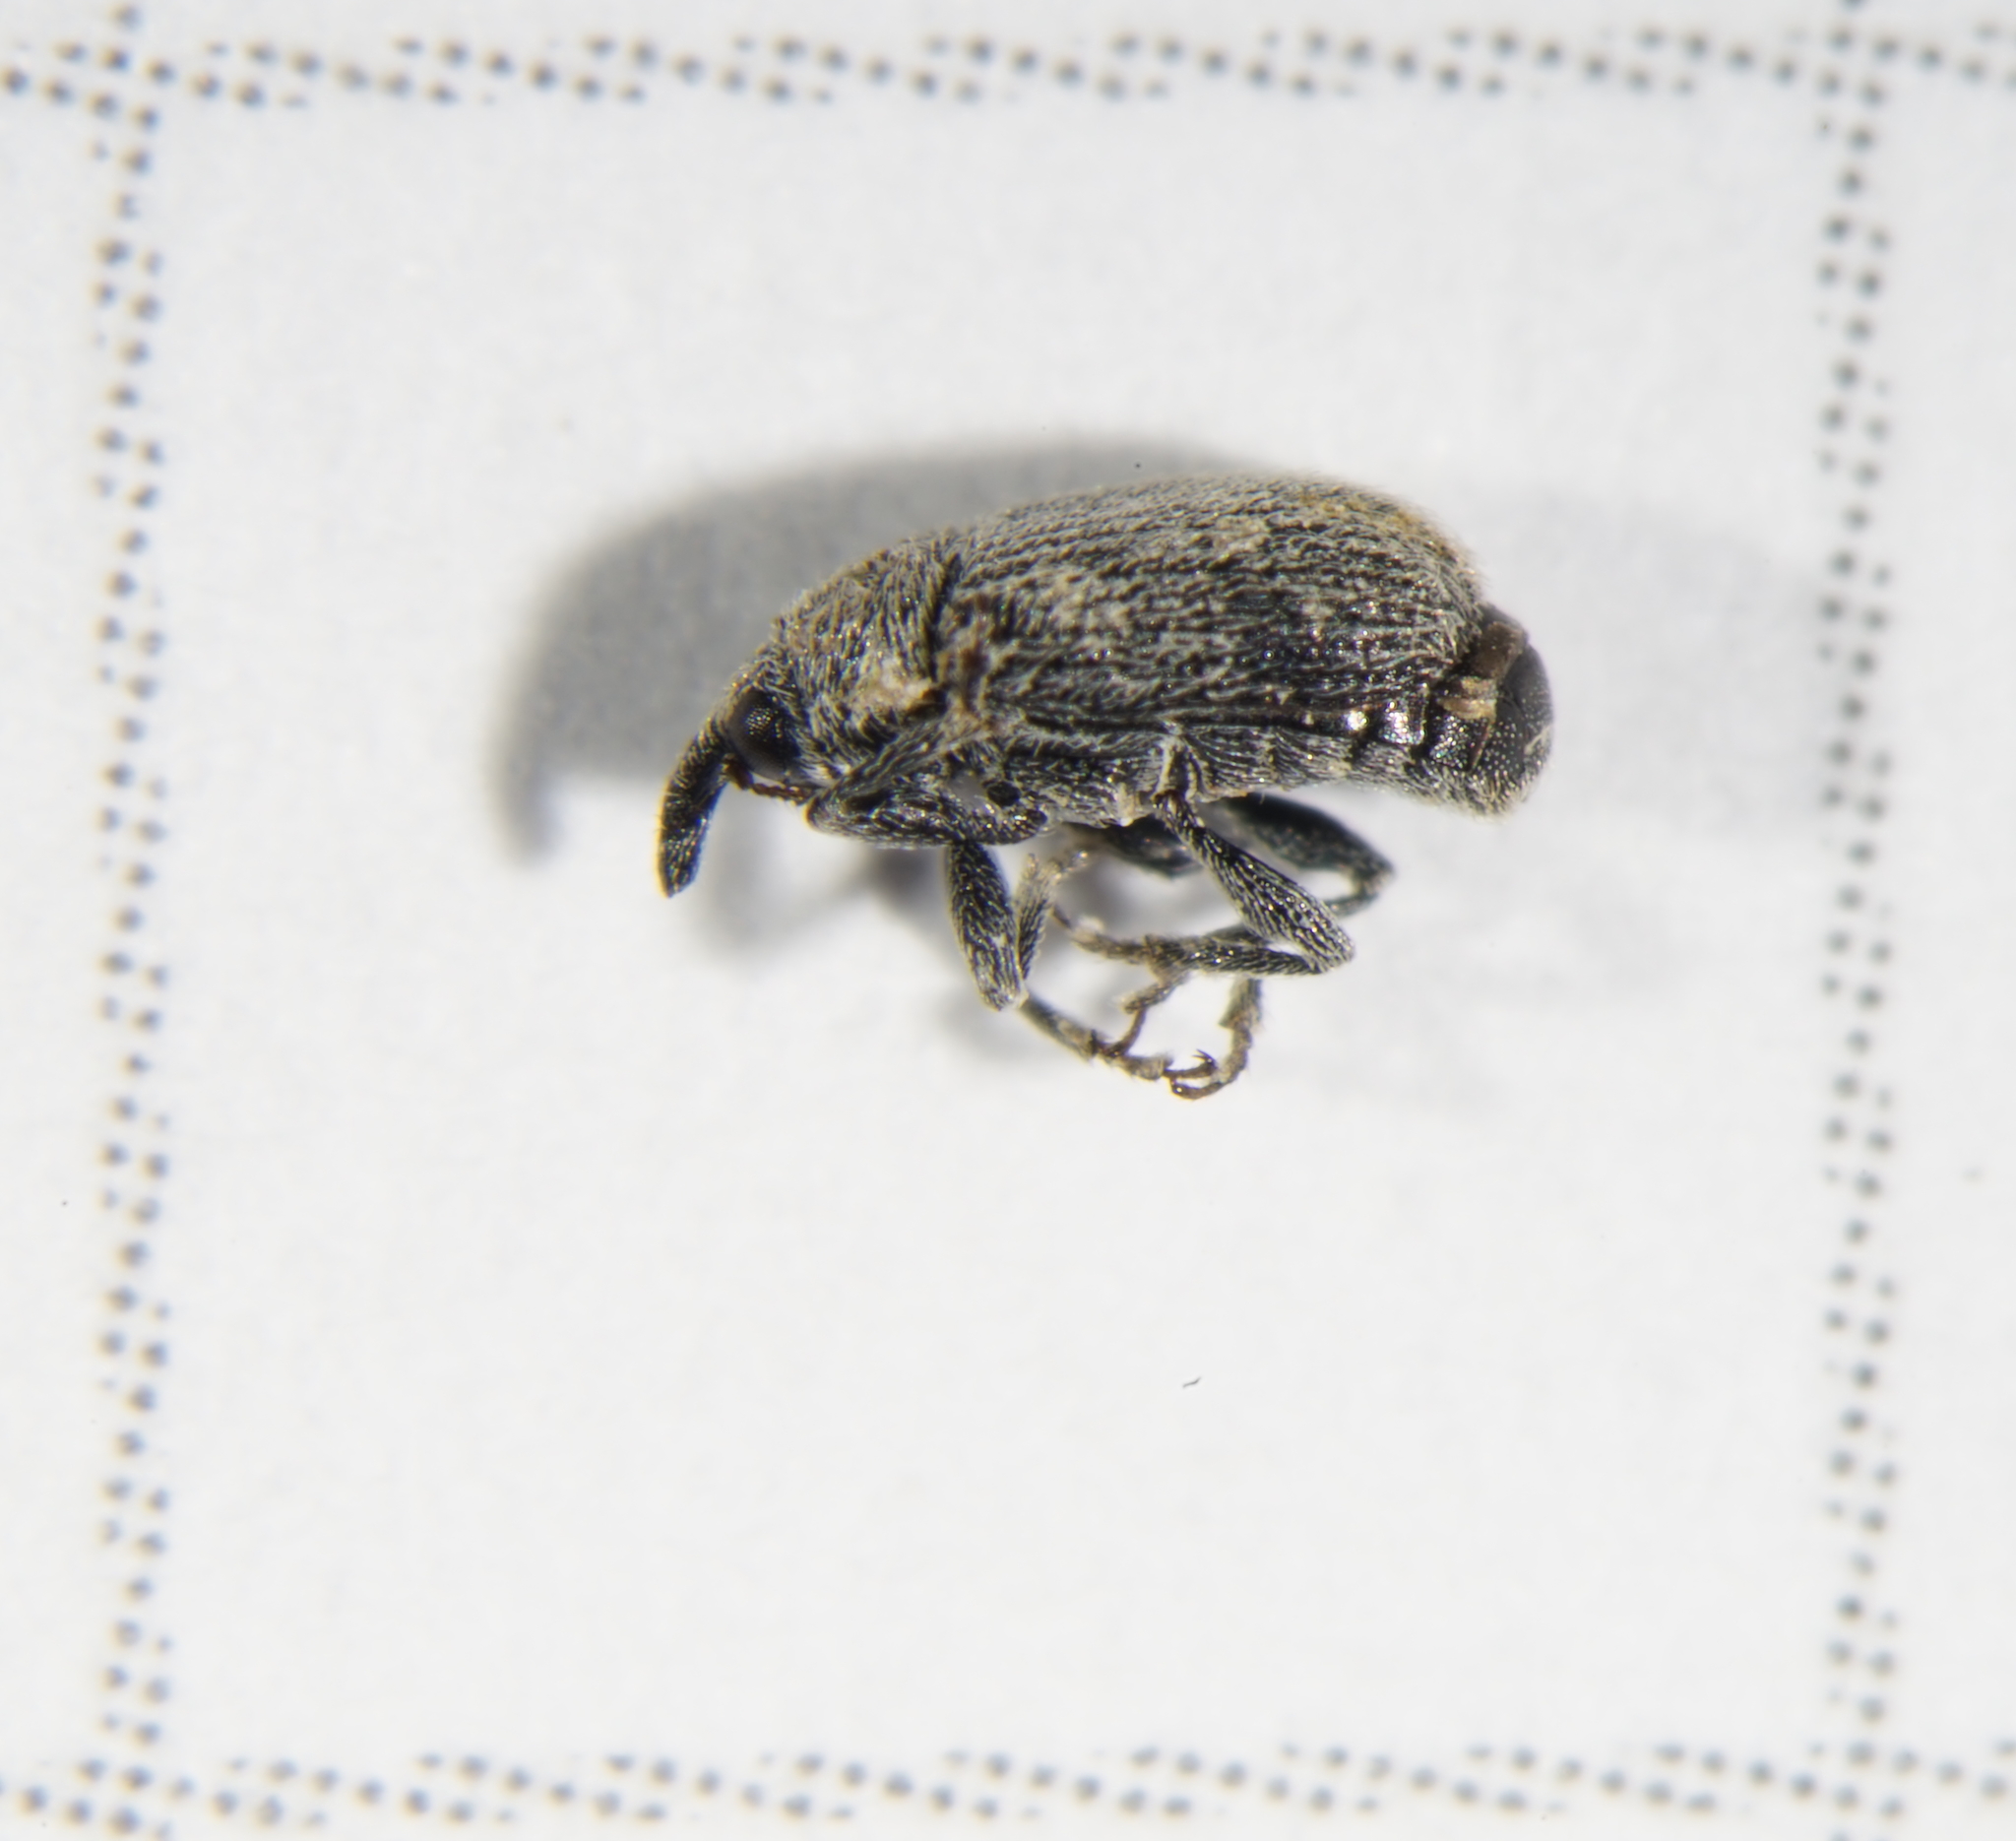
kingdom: Animalia
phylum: Arthropoda
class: Insecta
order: Coleoptera
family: Curculionidae
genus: Gymnetron
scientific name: Gymnetron melas
